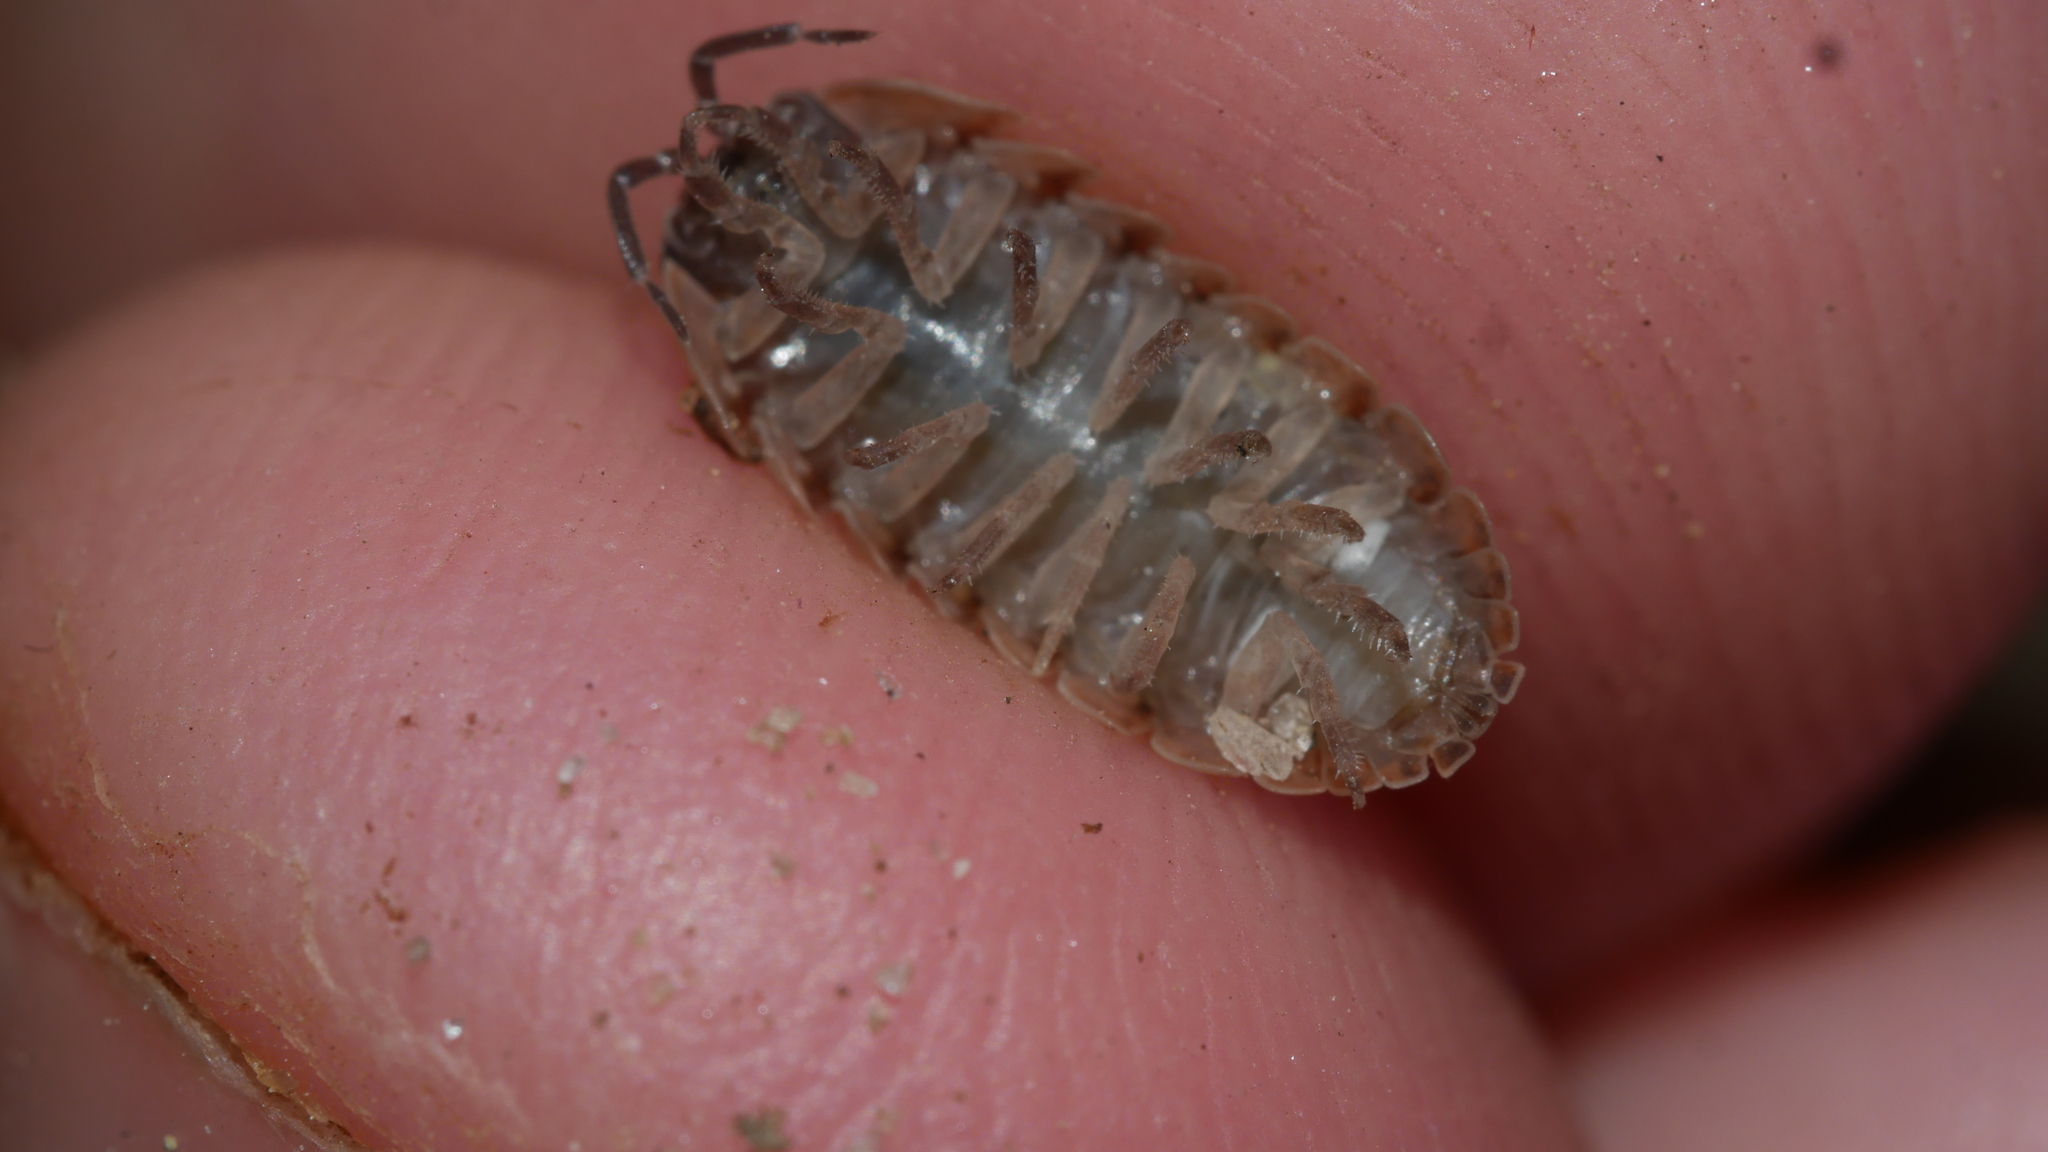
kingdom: Animalia
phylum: Arthropoda
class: Malacostraca
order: Isopoda
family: Armadillidiidae
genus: Armadillidium
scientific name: Armadillidium vulgare
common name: Common pill woodlouse
